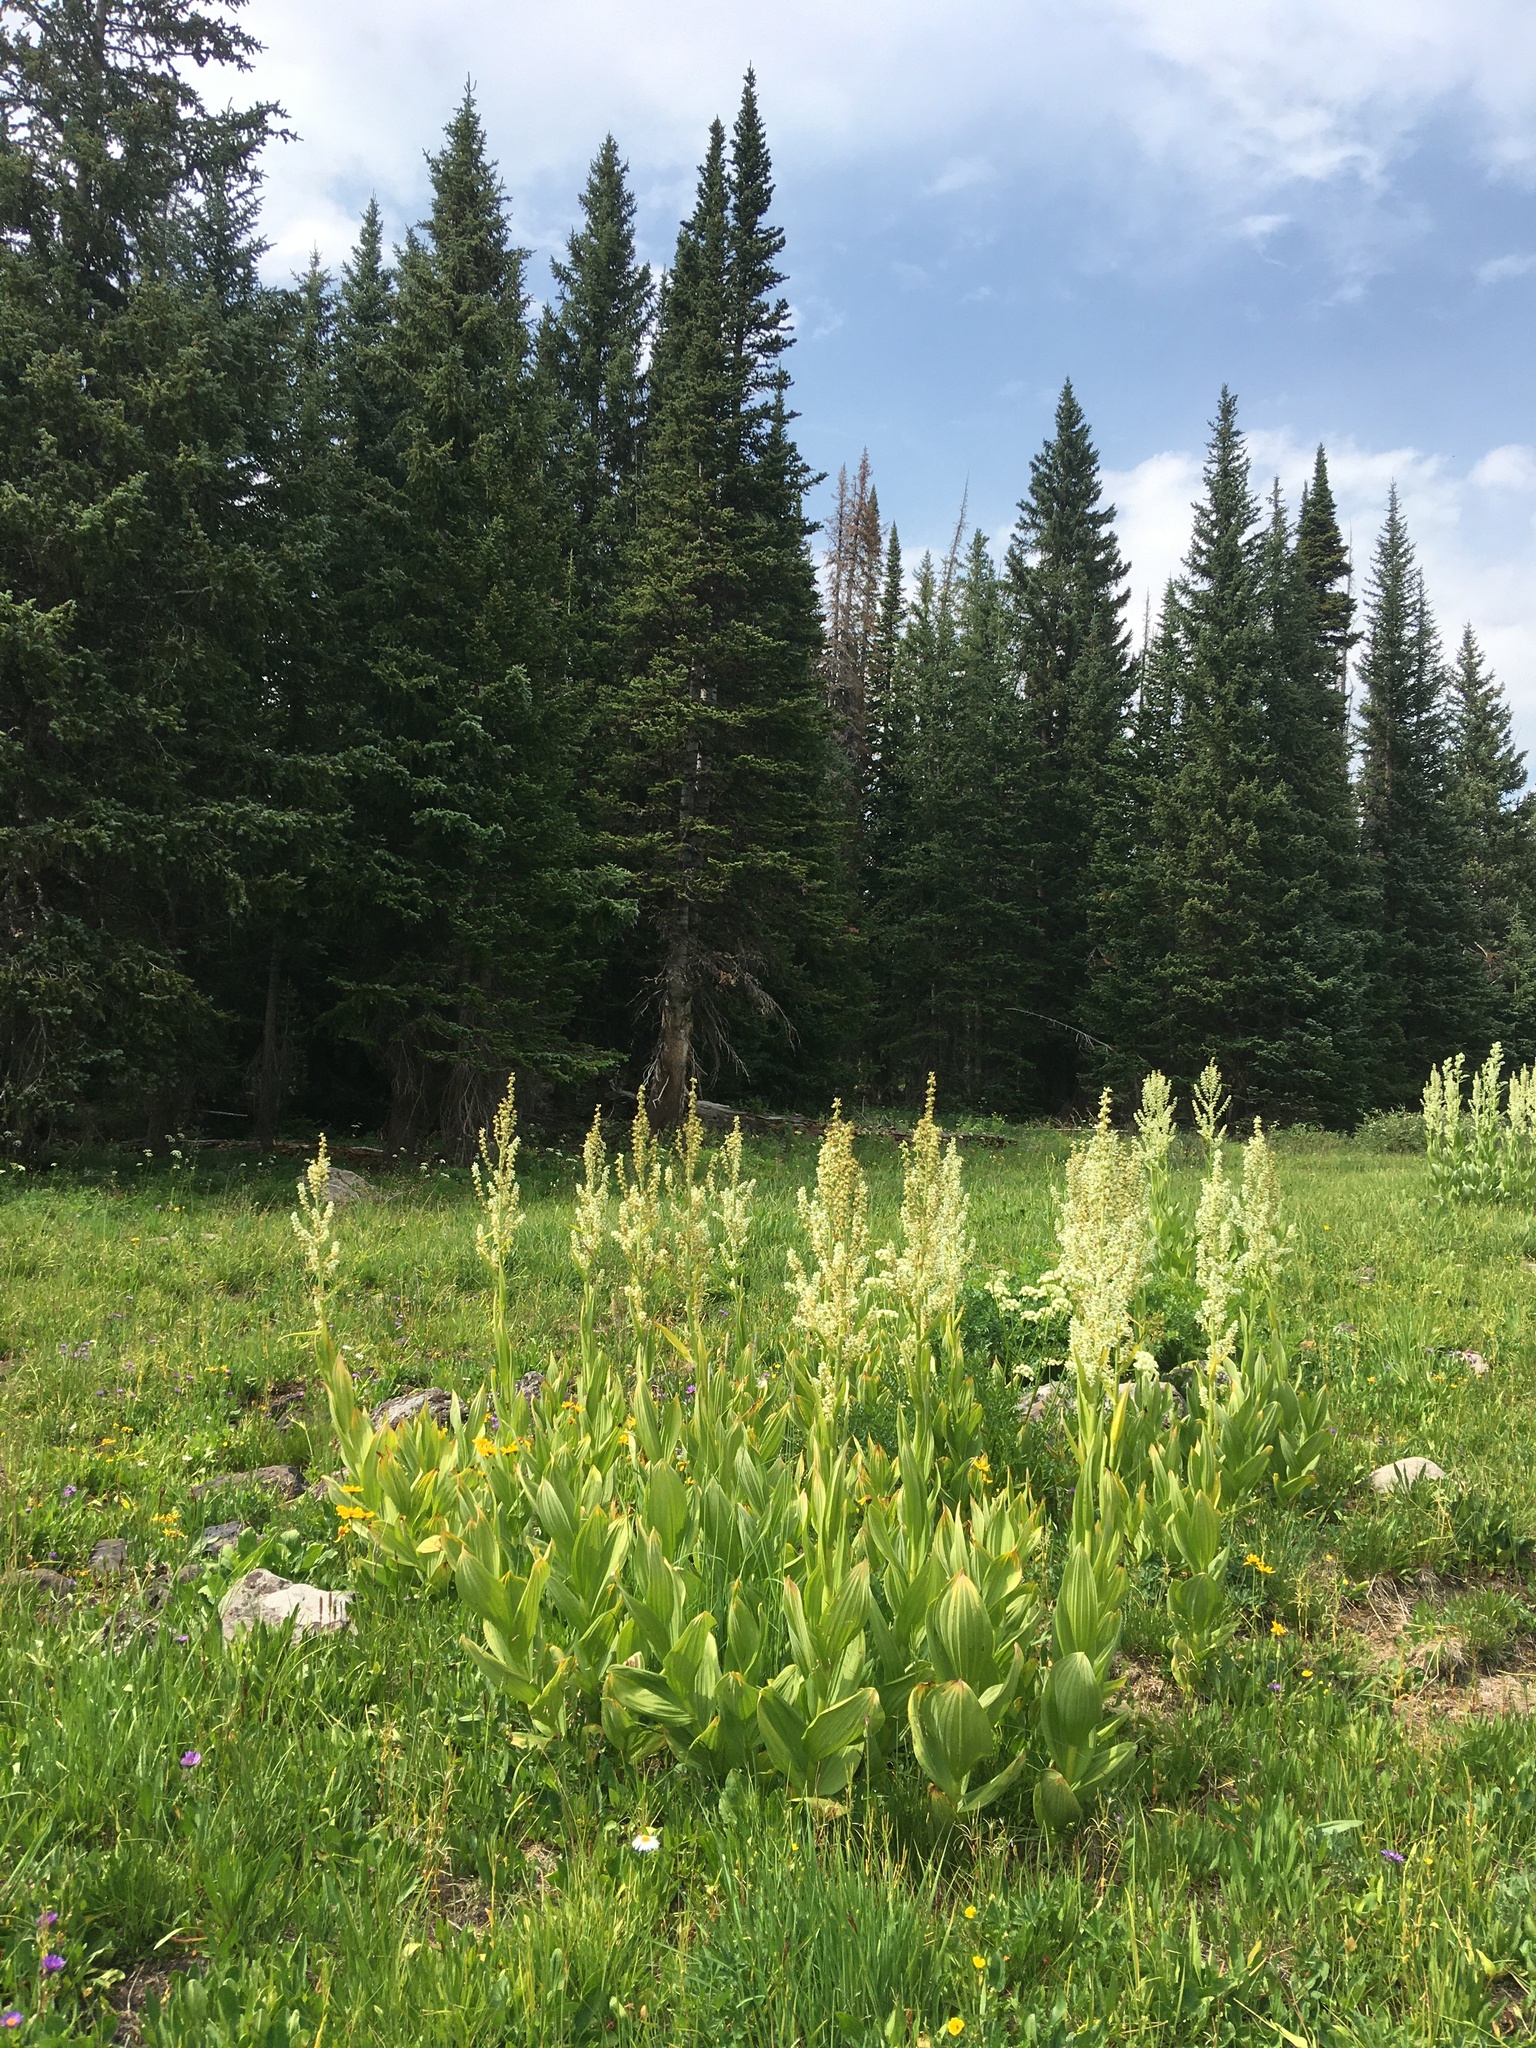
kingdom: Plantae
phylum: Tracheophyta
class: Liliopsida
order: Liliales
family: Melanthiaceae
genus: Veratrum
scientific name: Veratrum californicum
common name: California veratrum
